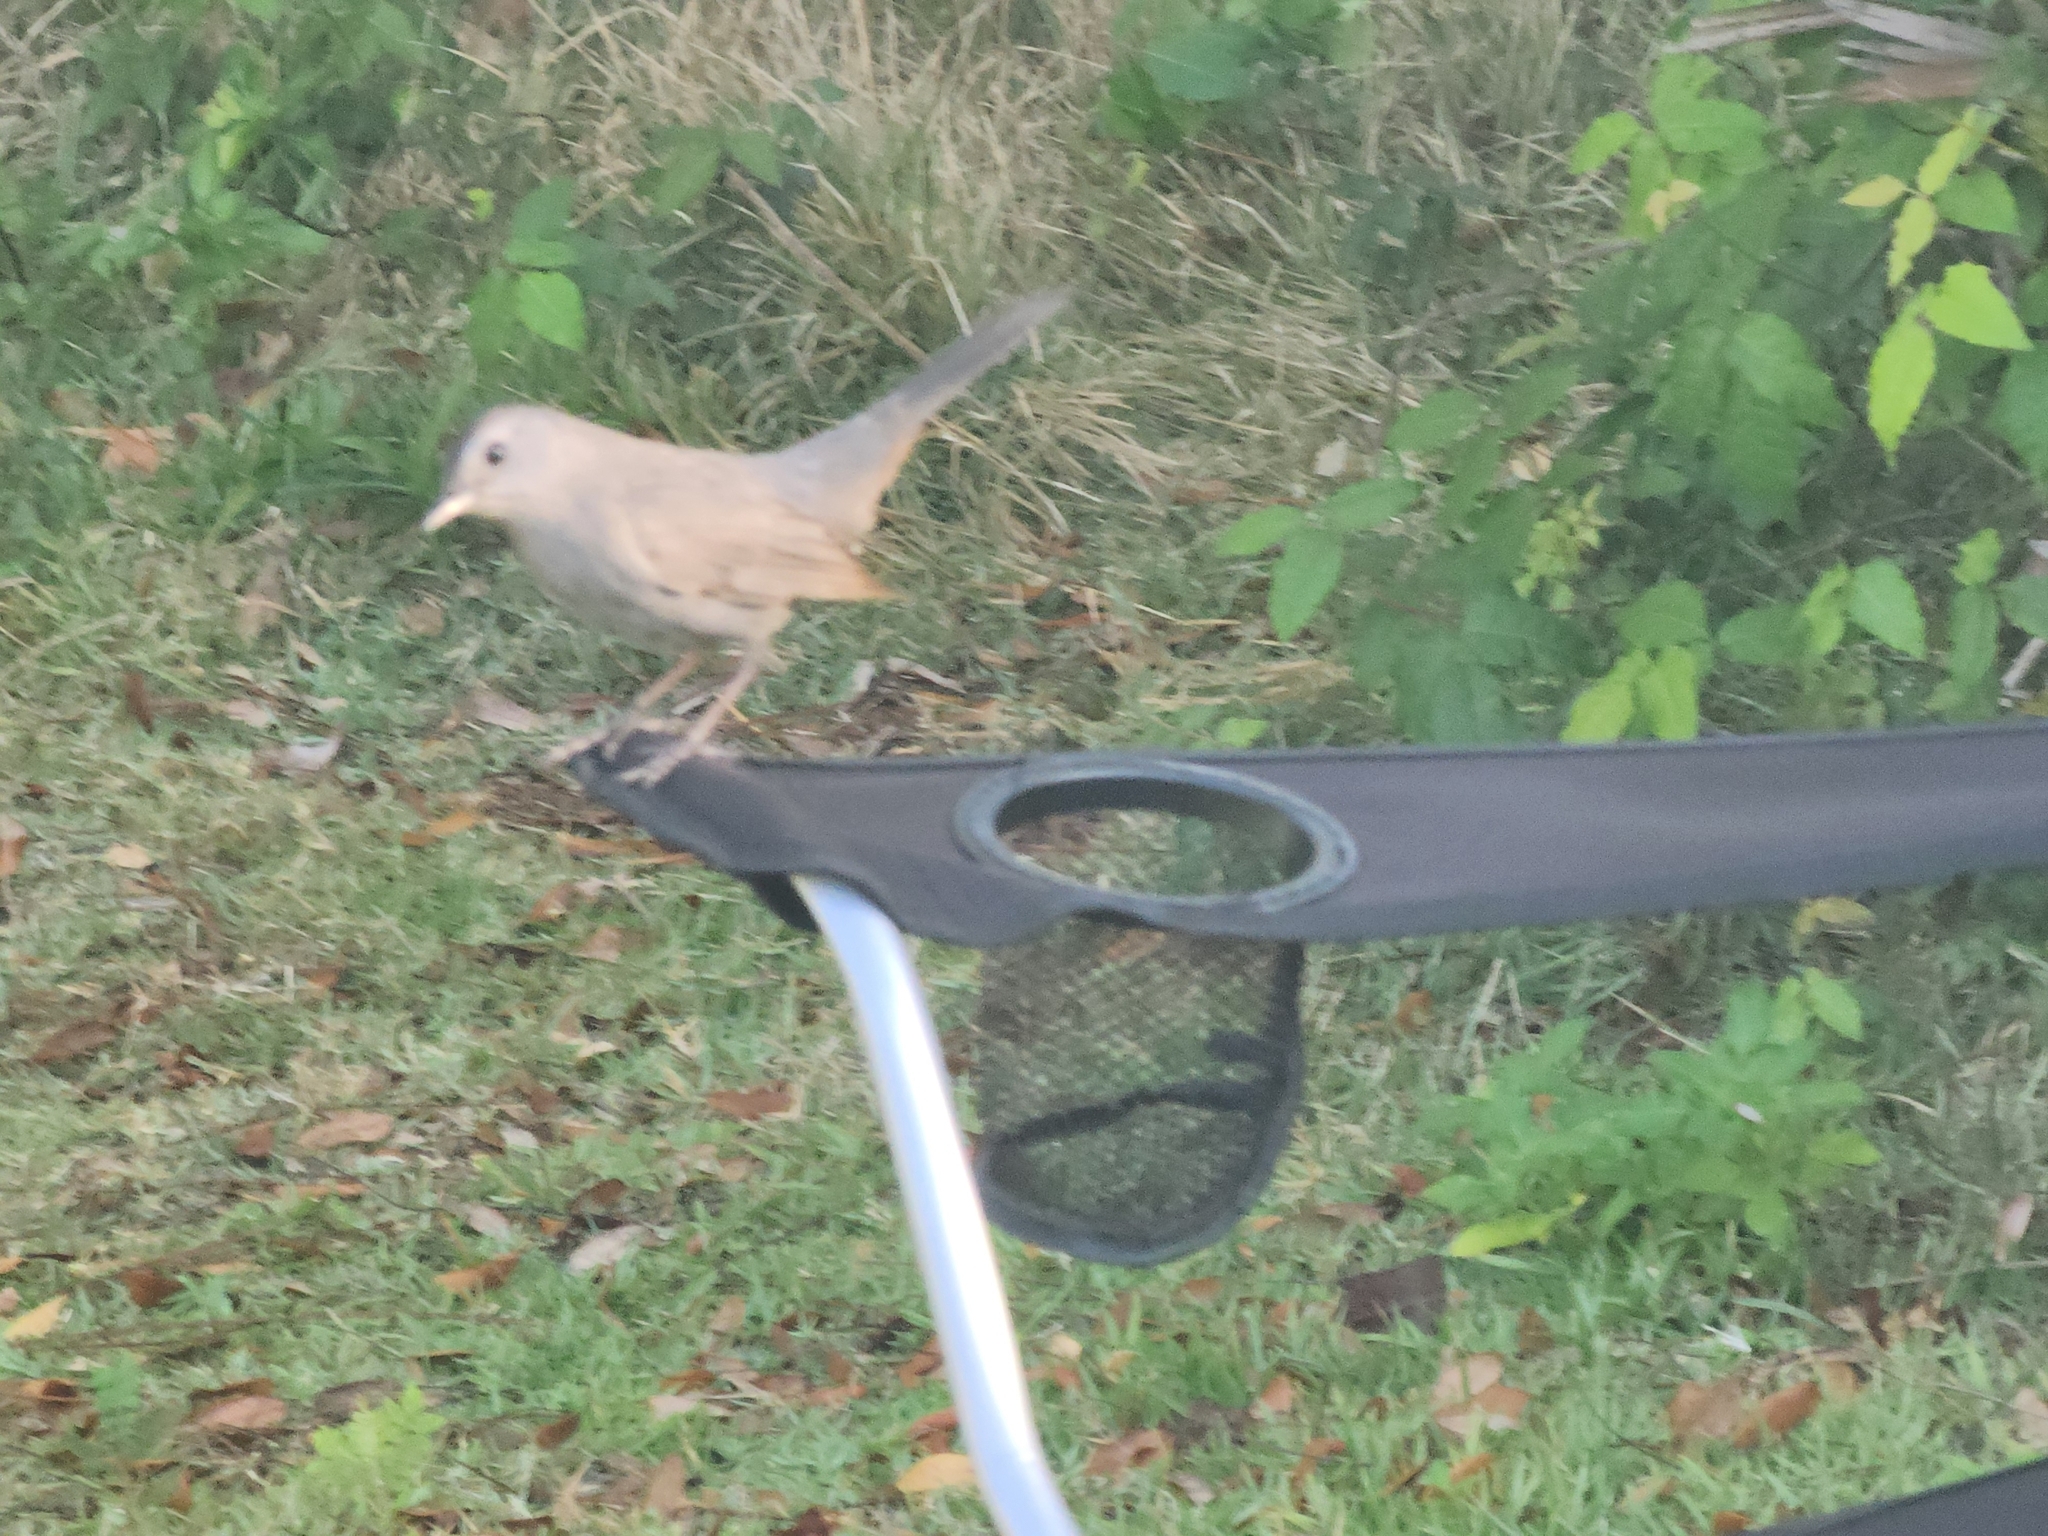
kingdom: Animalia
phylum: Chordata
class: Aves
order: Passeriformes
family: Mimidae
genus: Dumetella
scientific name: Dumetella carolinensis
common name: Gray catbird
